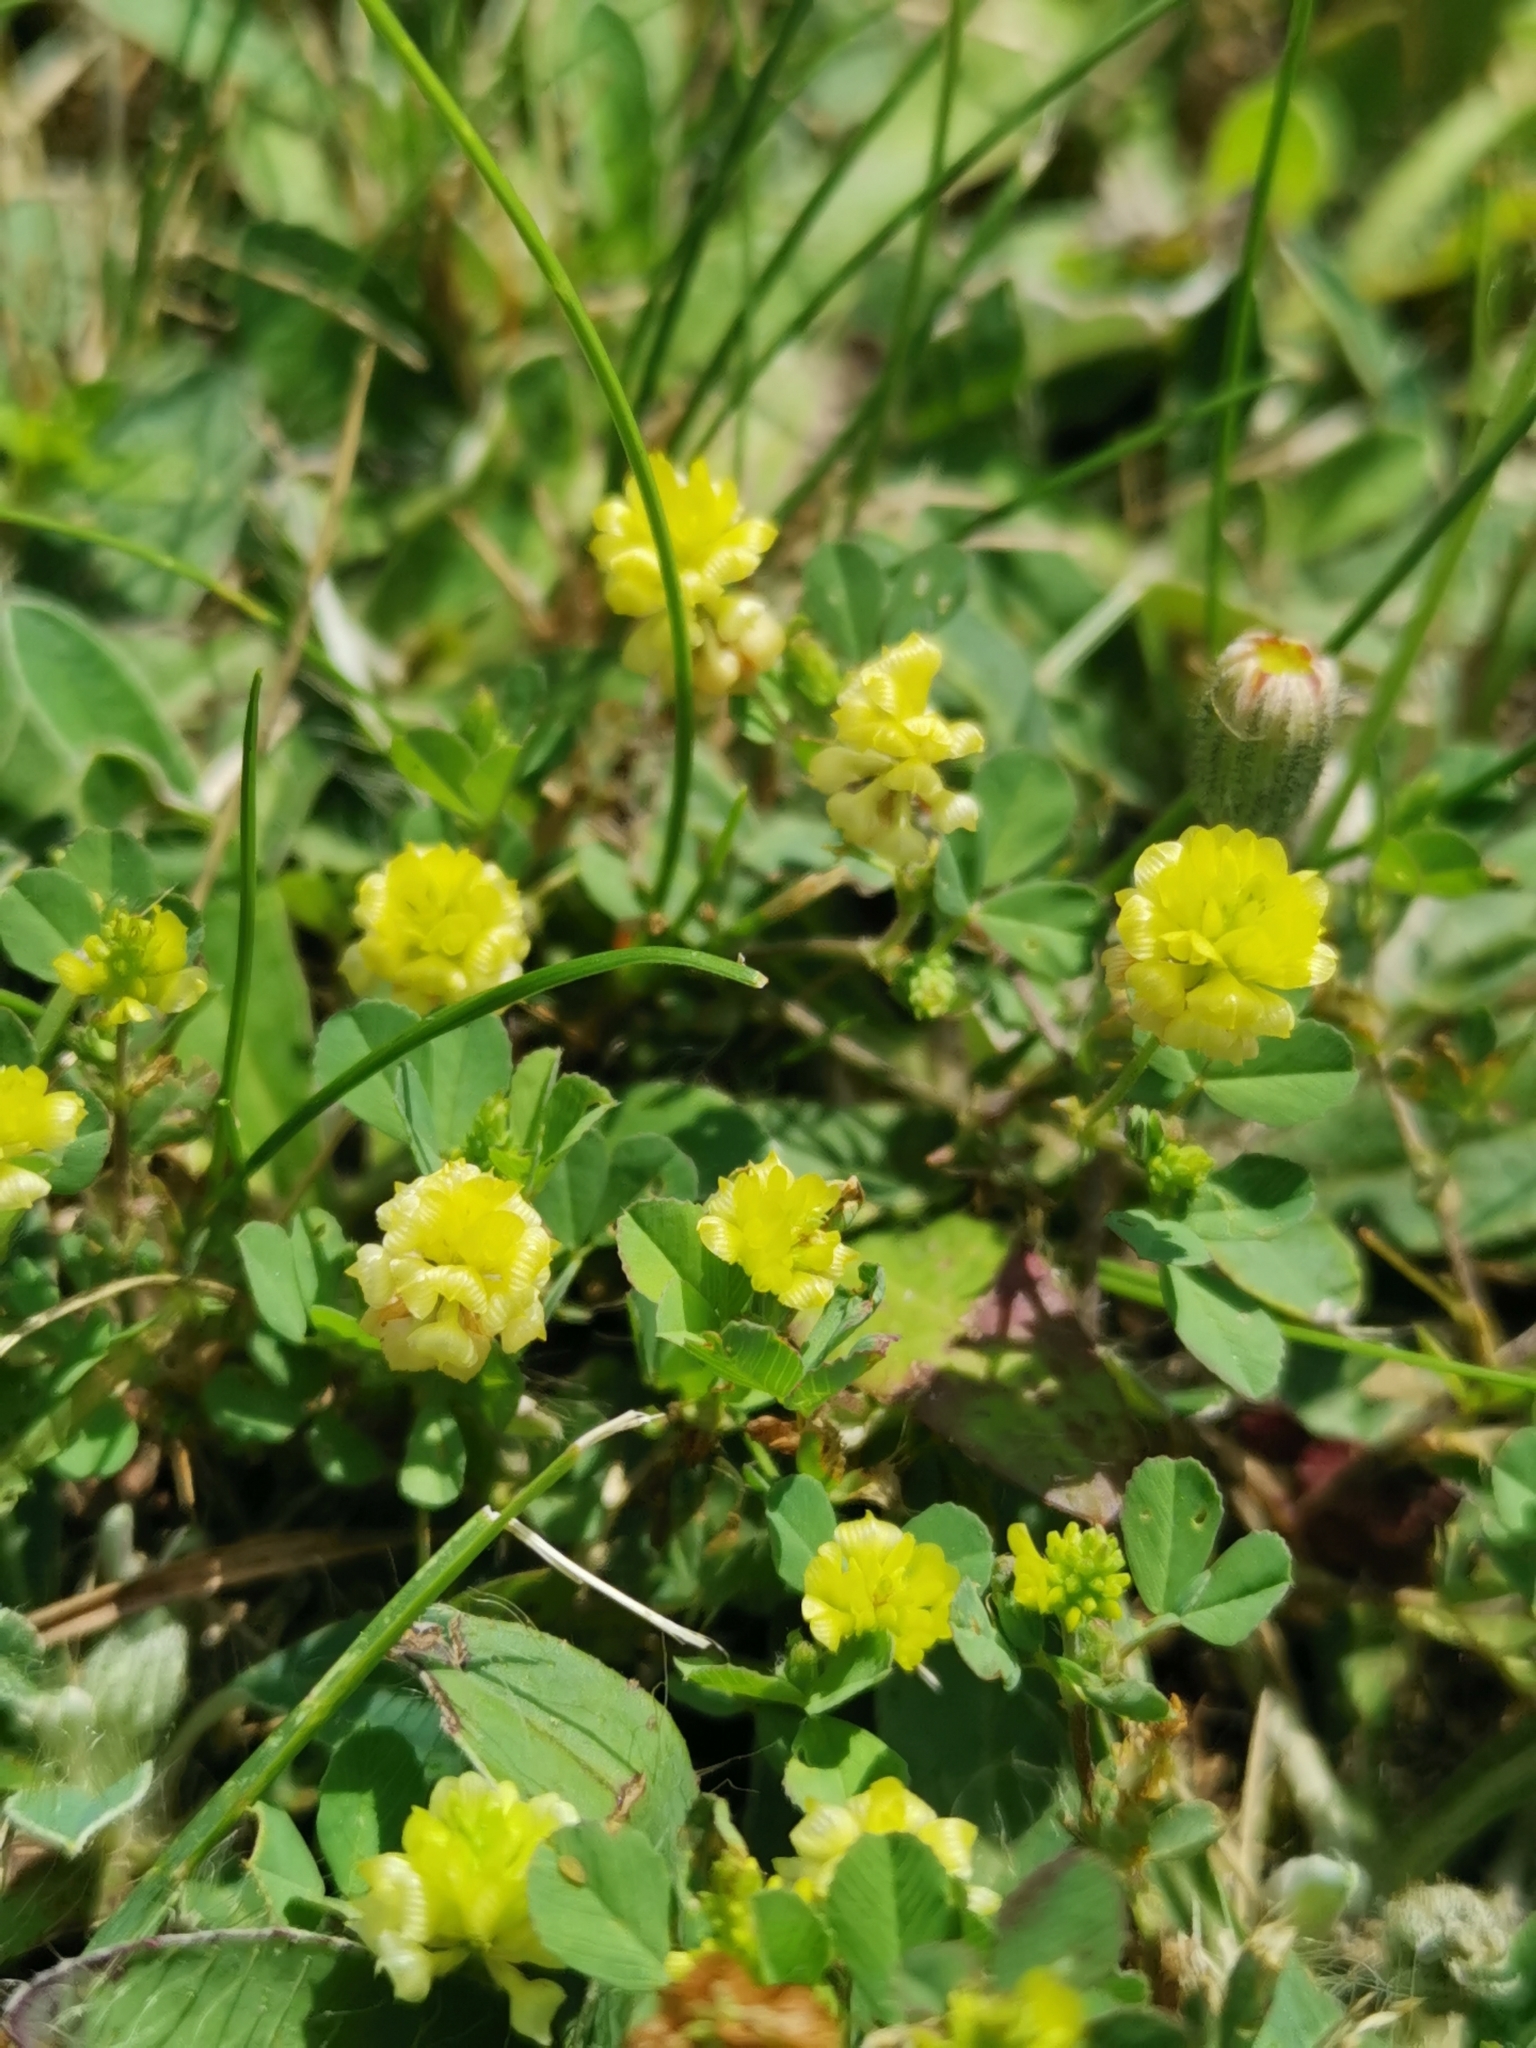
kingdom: Plantae
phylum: Tracheophyta
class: Magnoliopsida
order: Fabales
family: Fabaceae
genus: Trifolium
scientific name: Trifolium campestre
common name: Field clover
